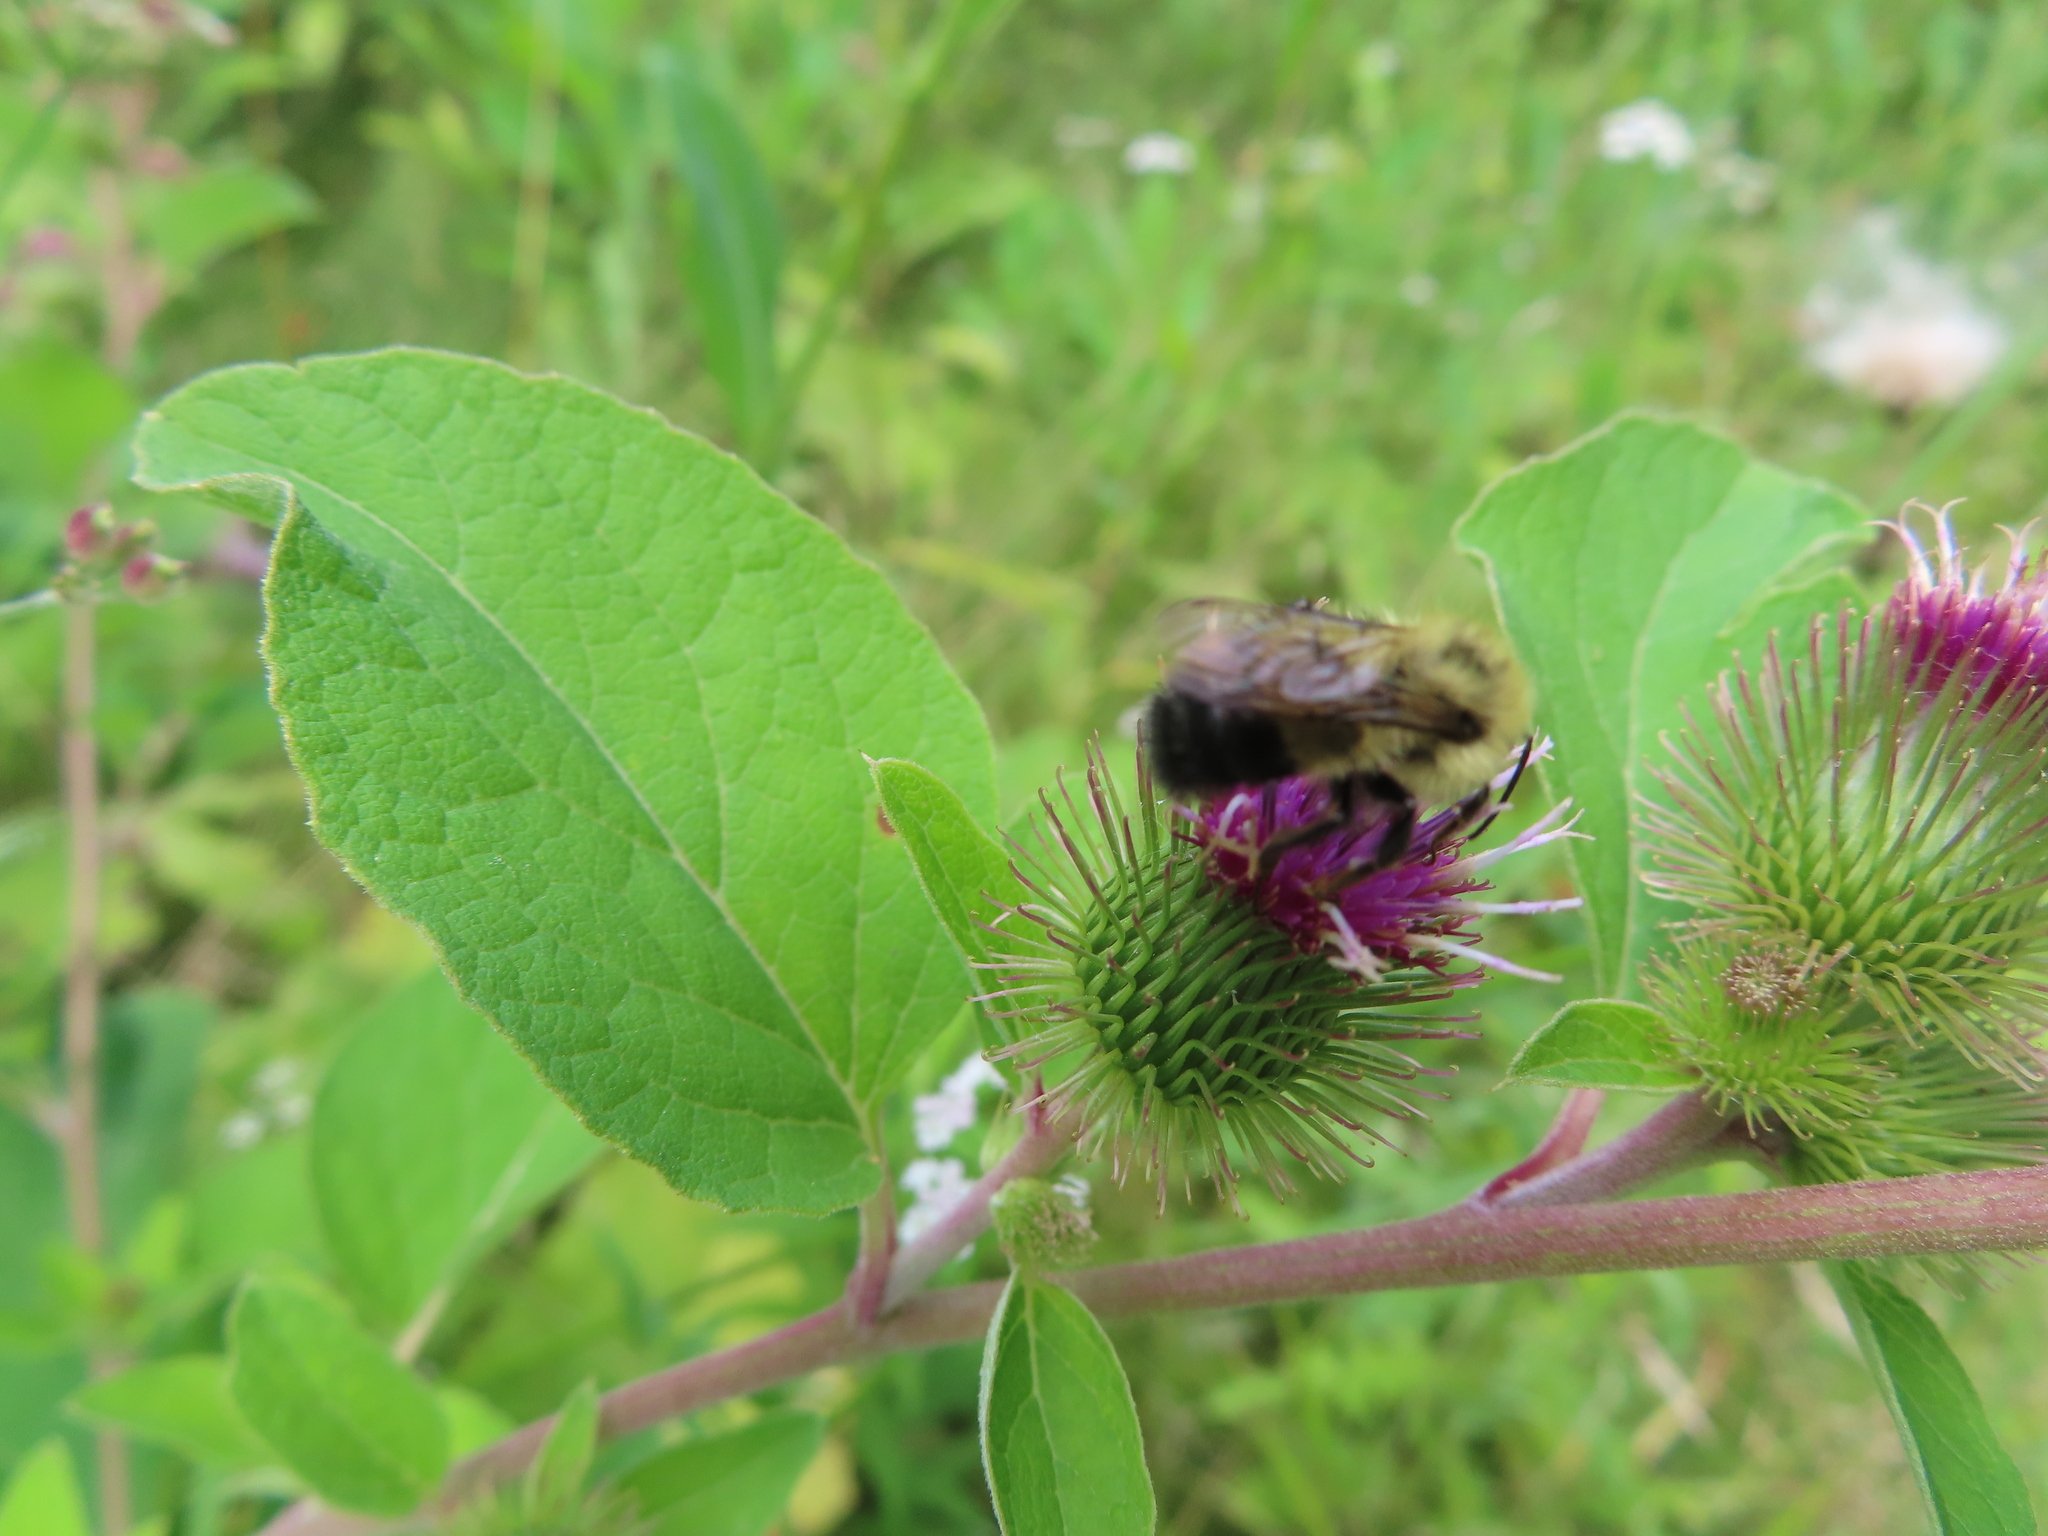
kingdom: Animalia
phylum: Arthropoda
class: Insecta
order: Hymenoptera
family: Apidae
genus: Bombus
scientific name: Bombus vagans
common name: Half-black bumble bee
